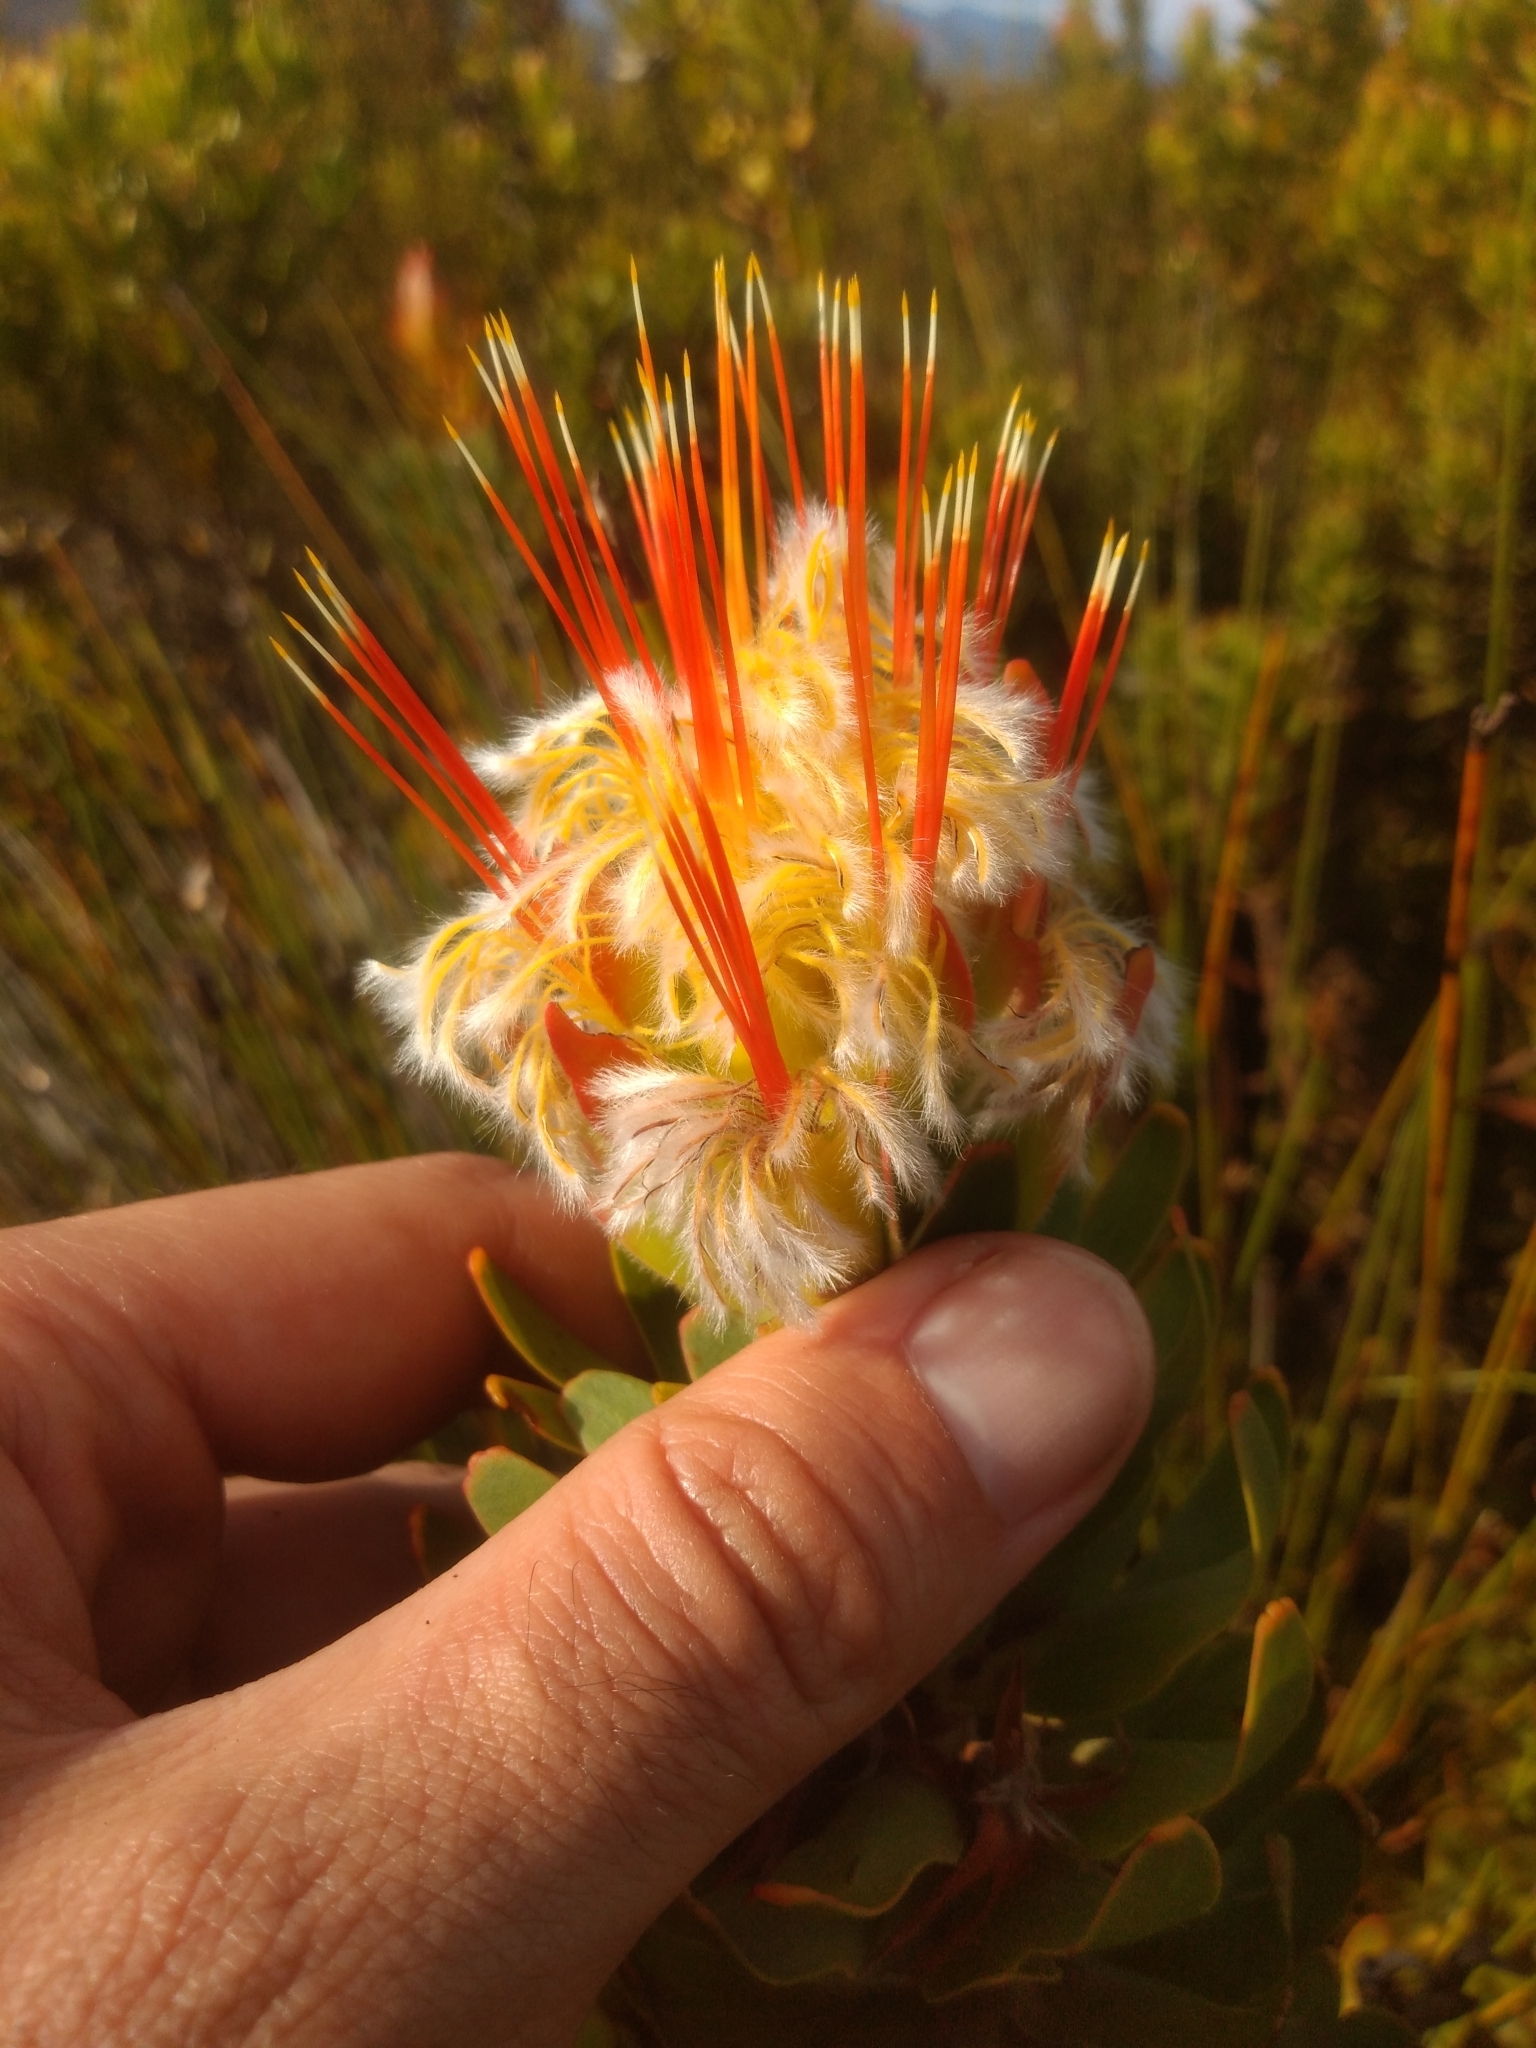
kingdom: Plantae
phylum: Tracheophyta
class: Magnoliopsida
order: Proteales
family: Proteaceae
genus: Mimetes
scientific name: Mimetes cucullatus
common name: Common pagoda
